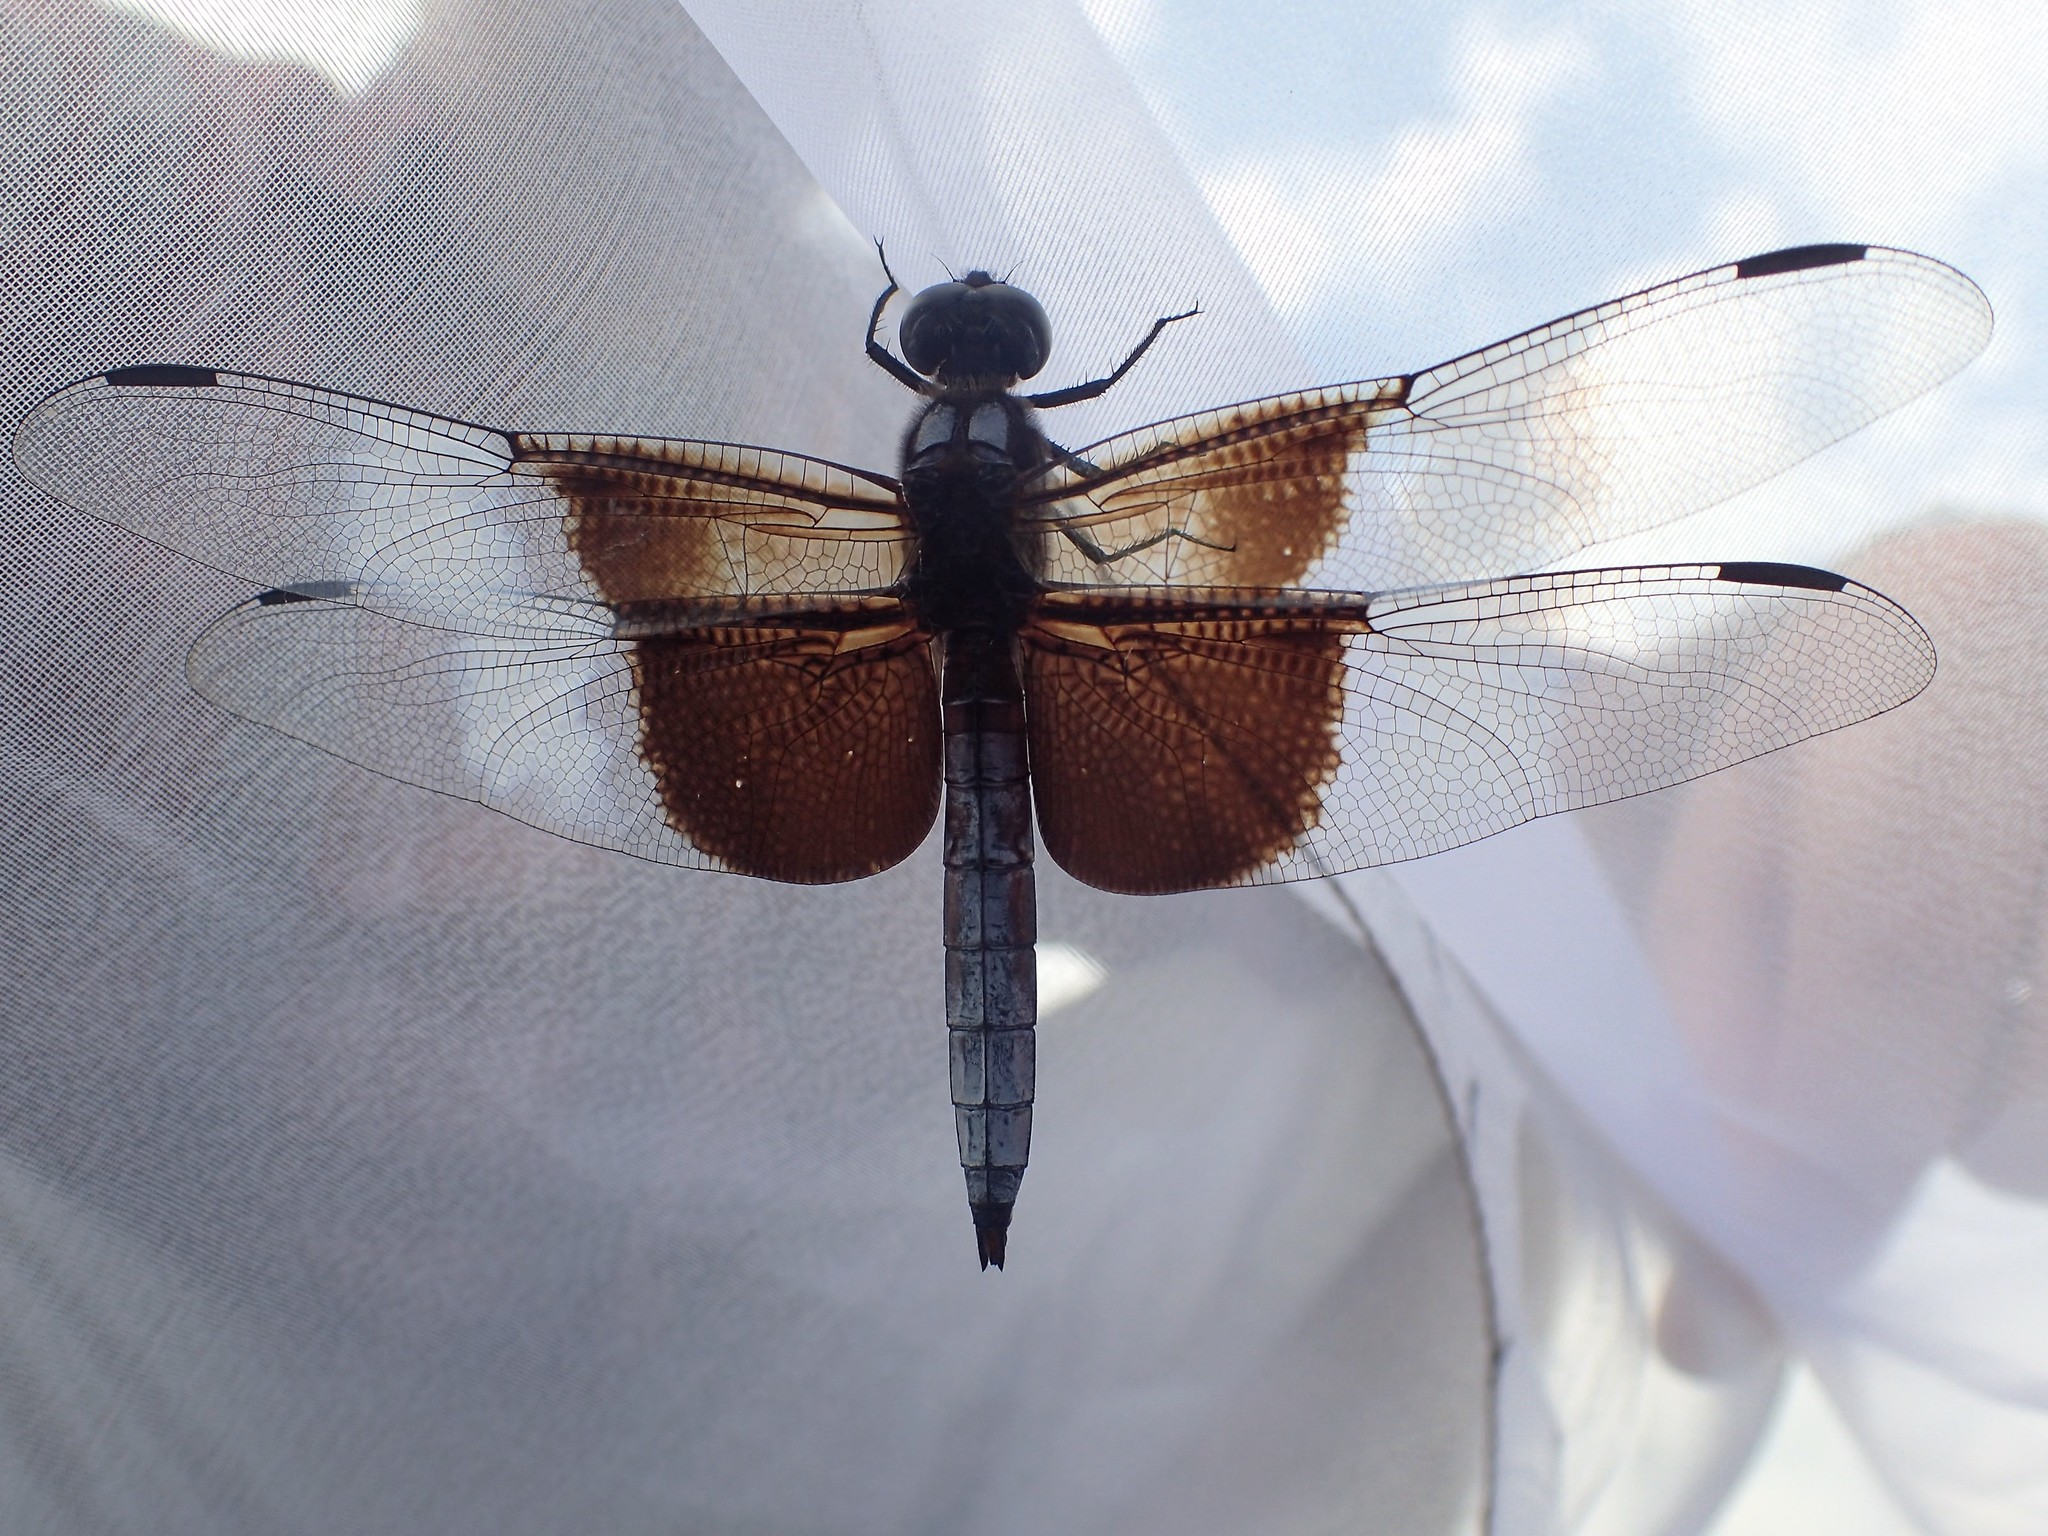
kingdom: Animalia
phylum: Arthropoda
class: Insecta
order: Odonata
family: Libellulidae
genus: Libellula
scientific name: Libellula luctuosa
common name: Widow skimmer
